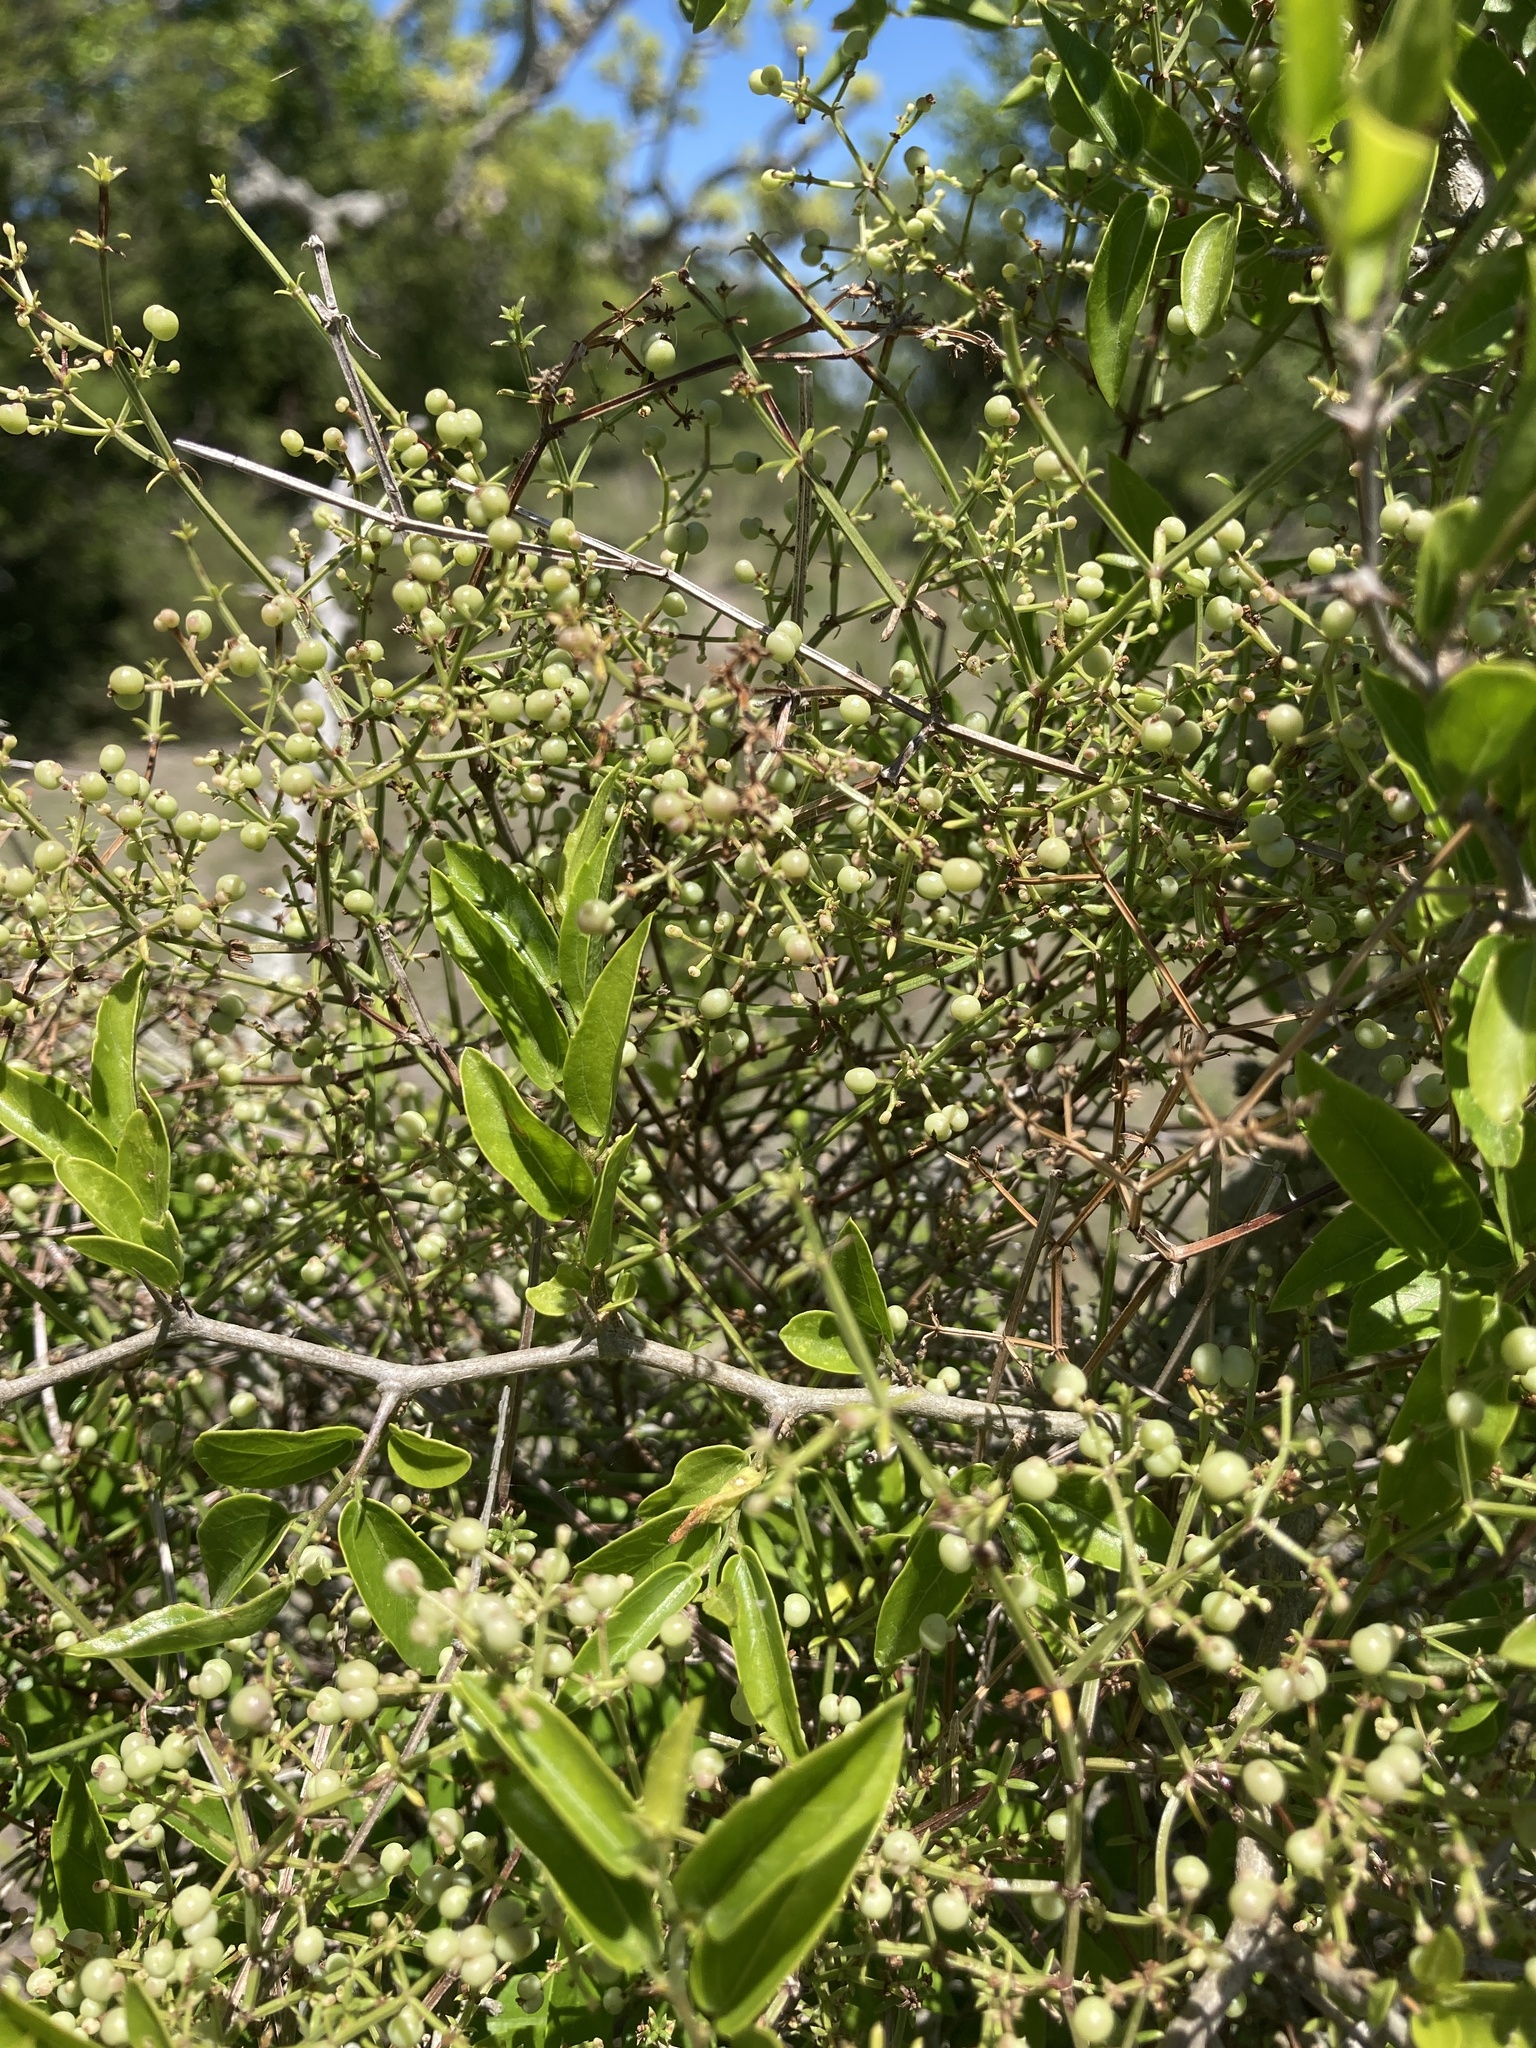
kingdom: Plantae
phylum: Tracheophyta
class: Magnoliopsida
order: Gentianales
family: Rubiaceae
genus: Galium
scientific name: Galium latoramosum
